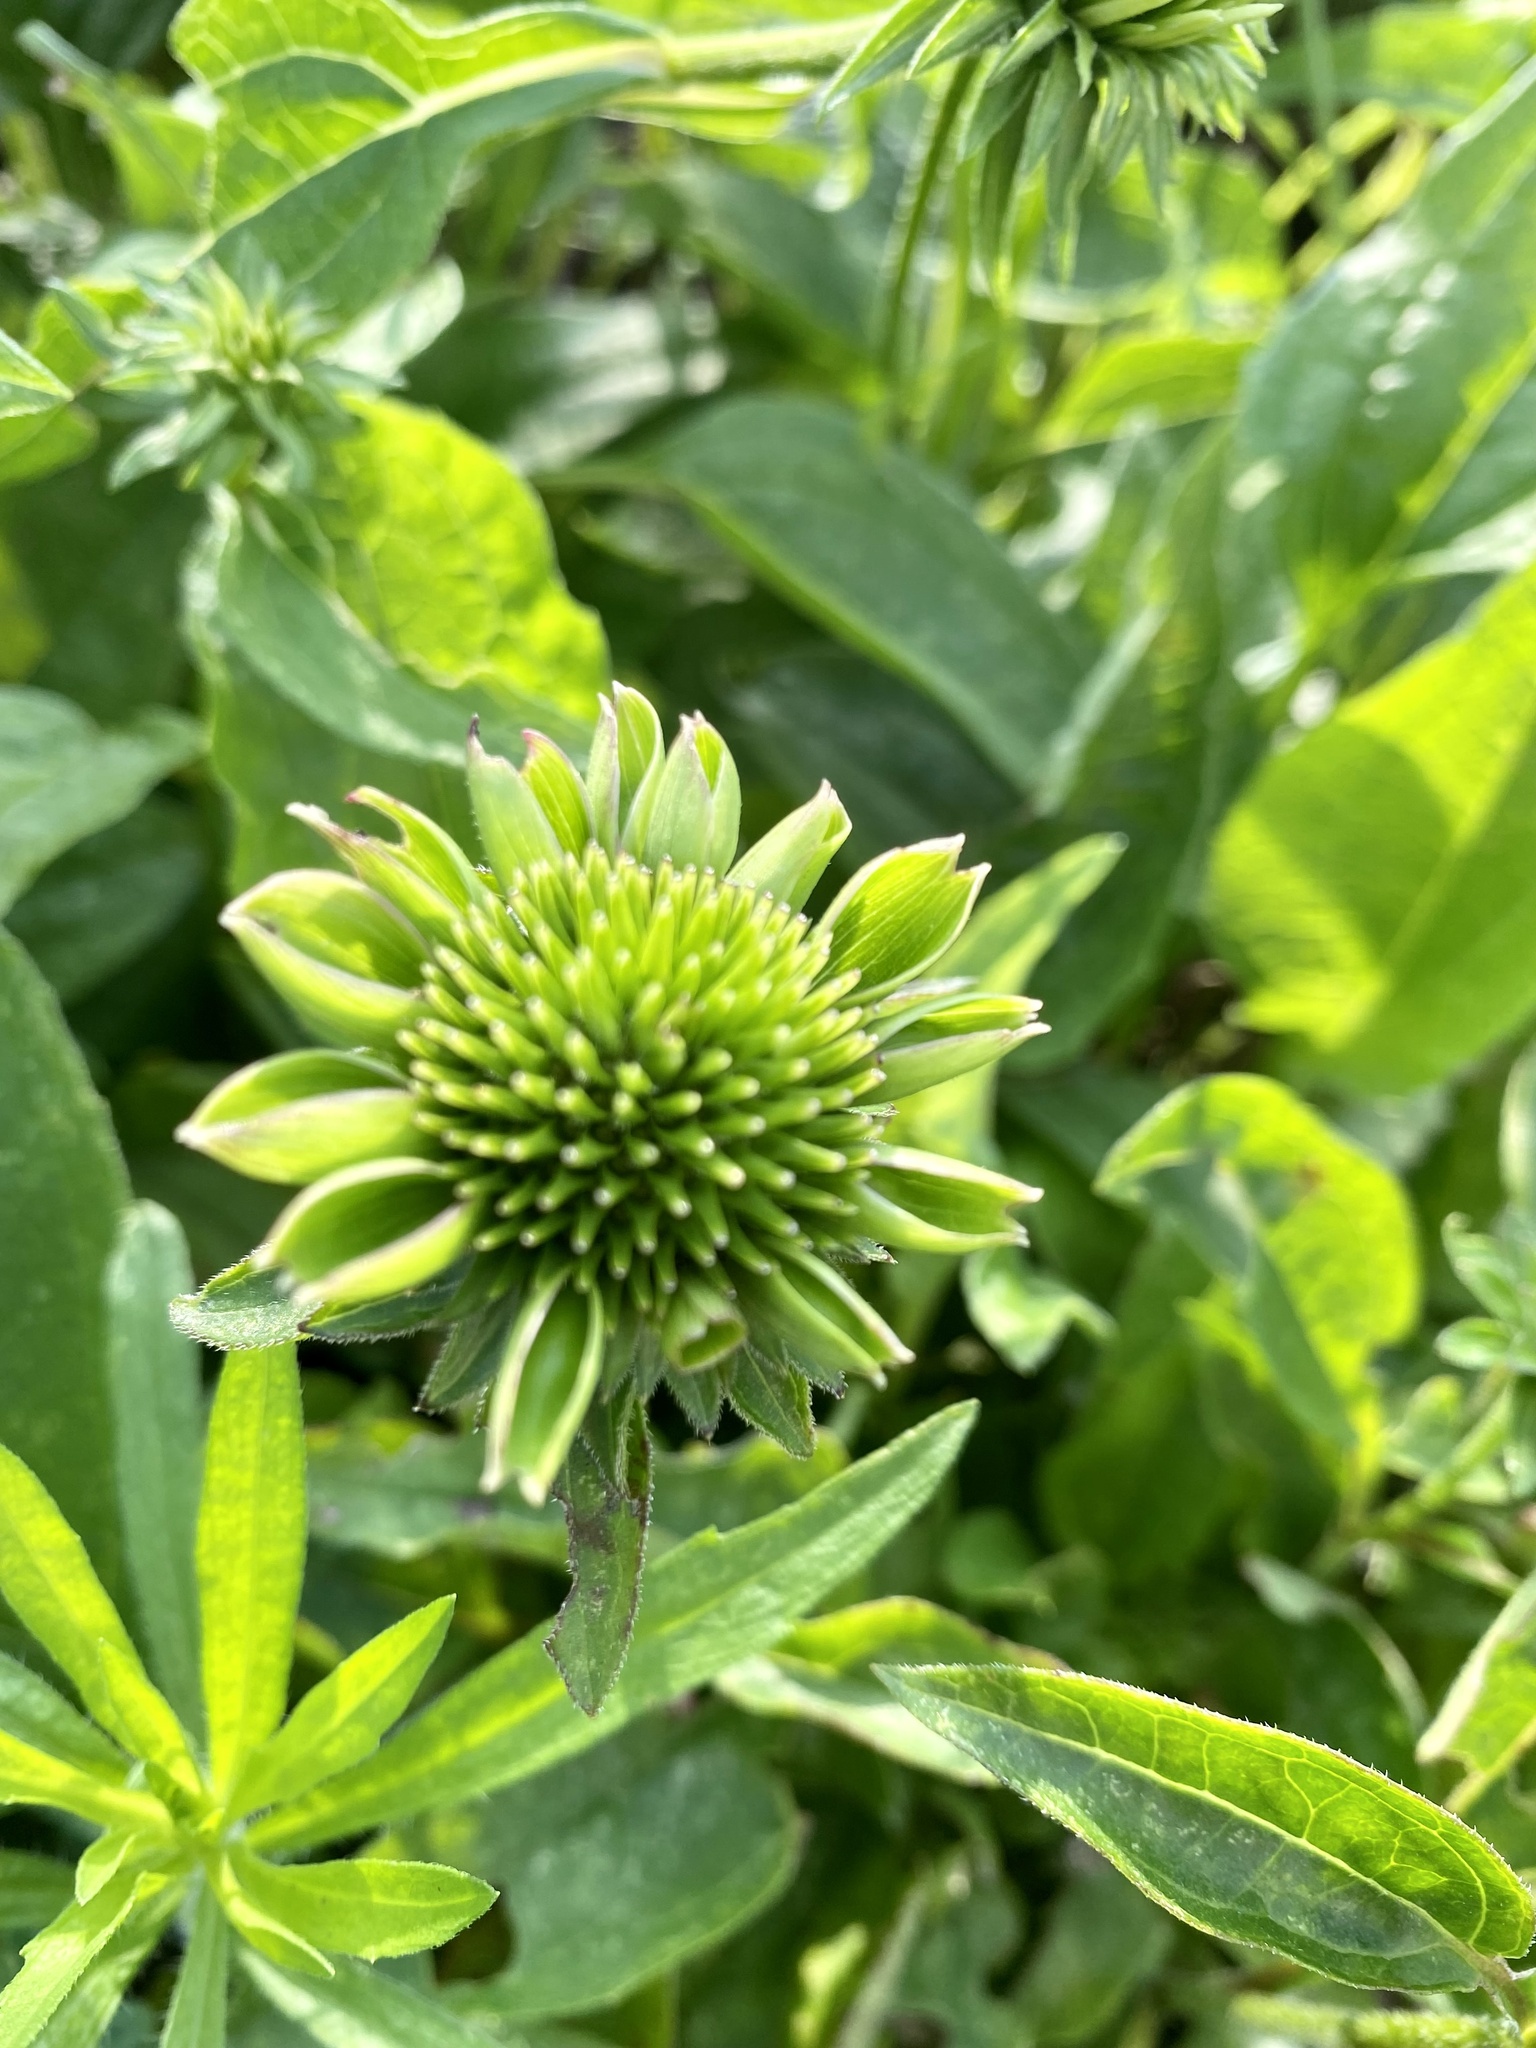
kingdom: Bacteria
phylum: Firmicutes
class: Bacilli
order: Acholeplasmatales
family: Acholeplasmataceae
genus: Phytoplasma
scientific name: Phytoplasma
